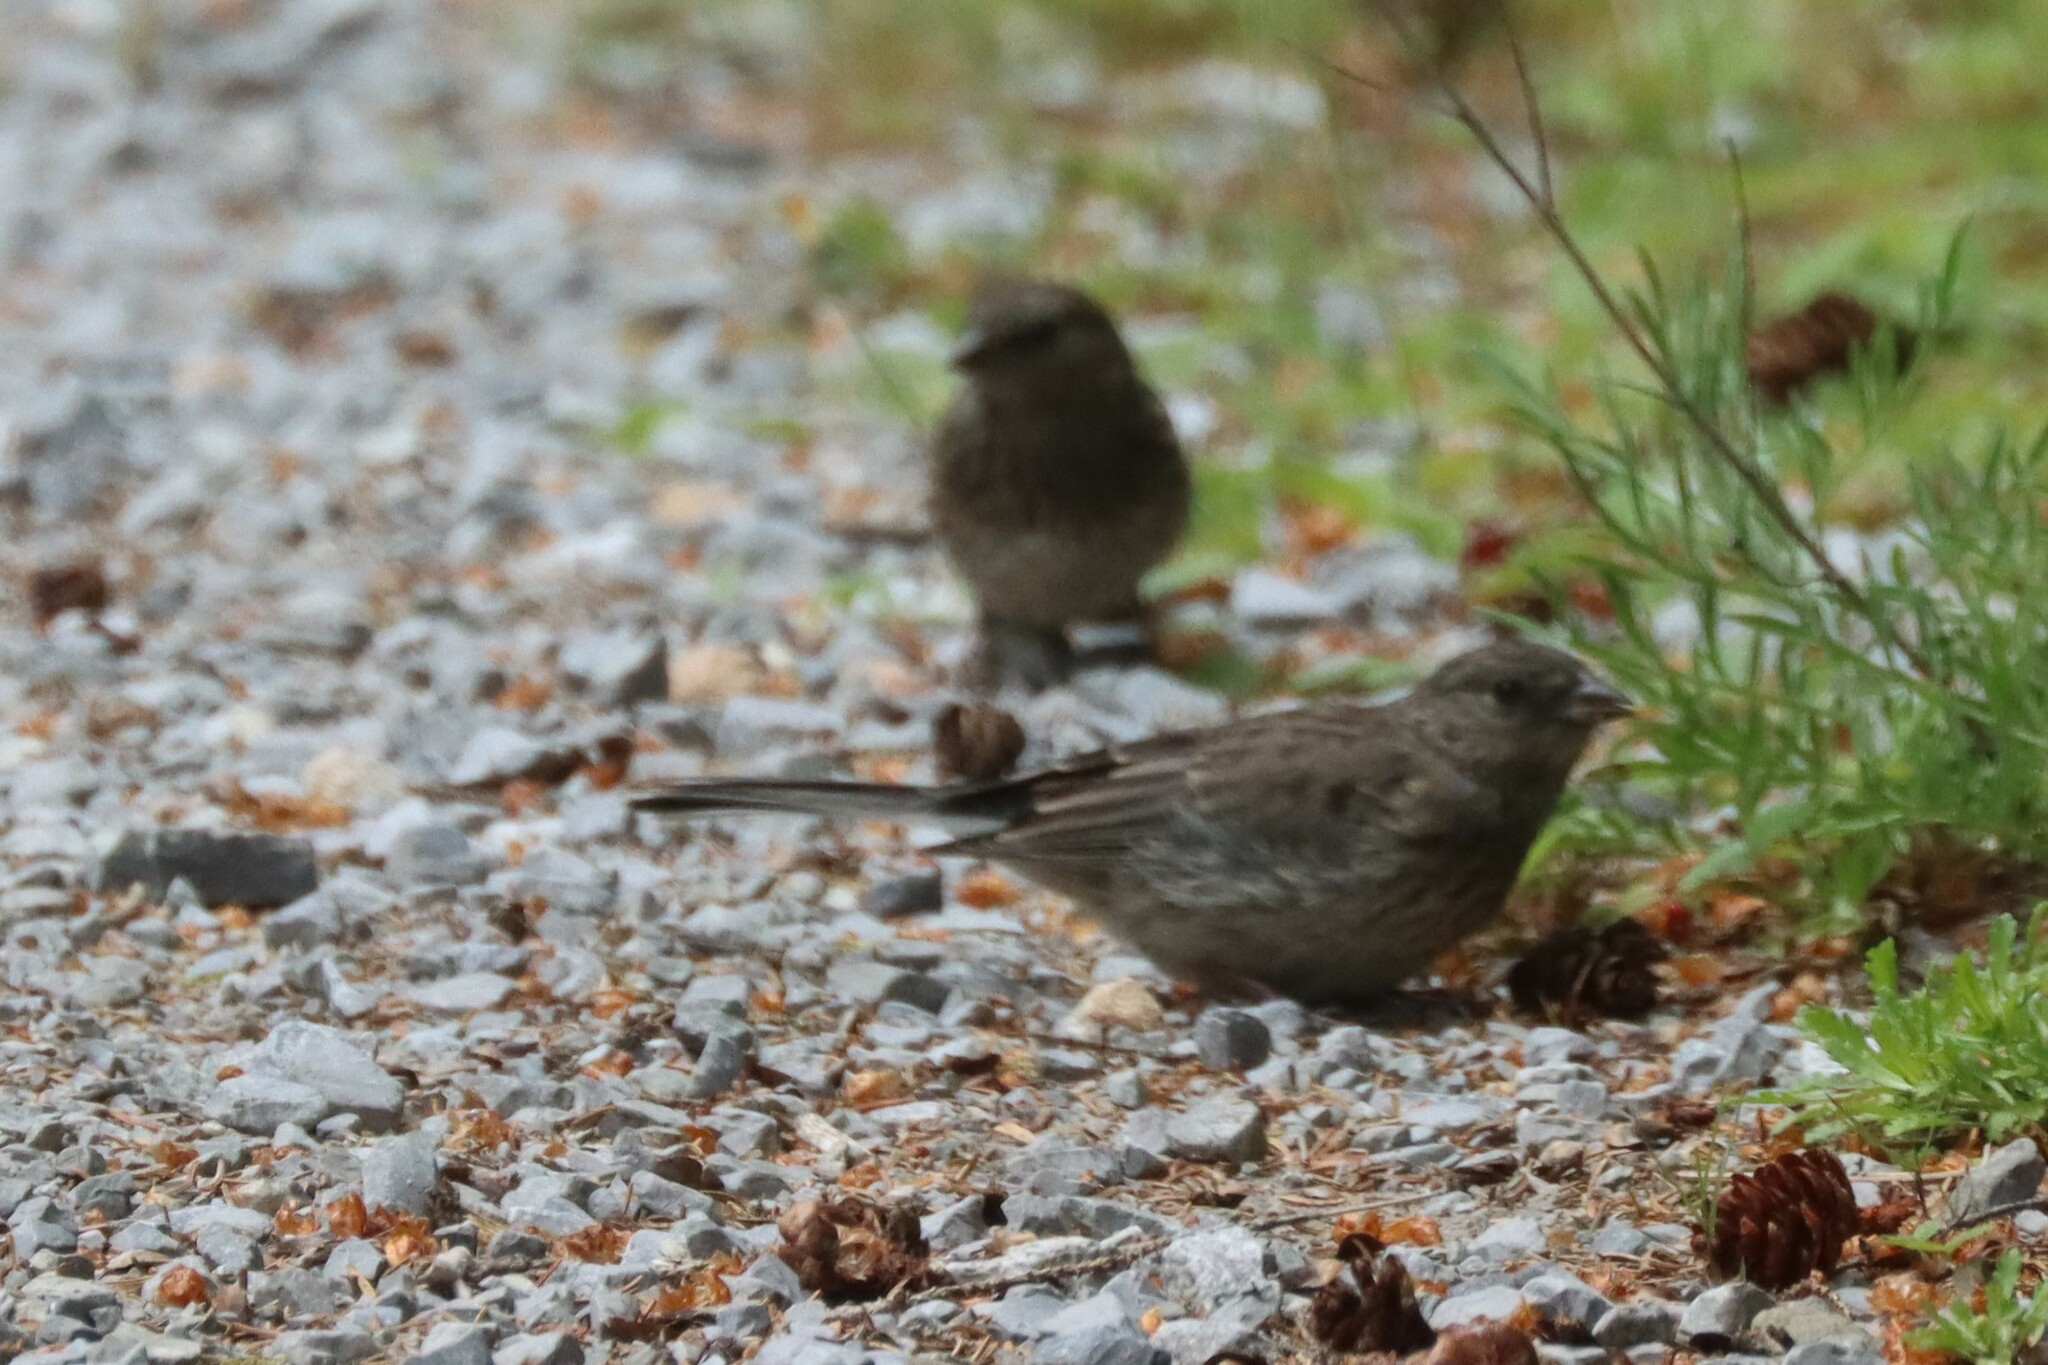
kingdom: Animalia
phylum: Chordata
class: Aves
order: Passeriformes
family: Passerellidae
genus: Junco
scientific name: Junco hyemalis
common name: Dark-eyed junco
